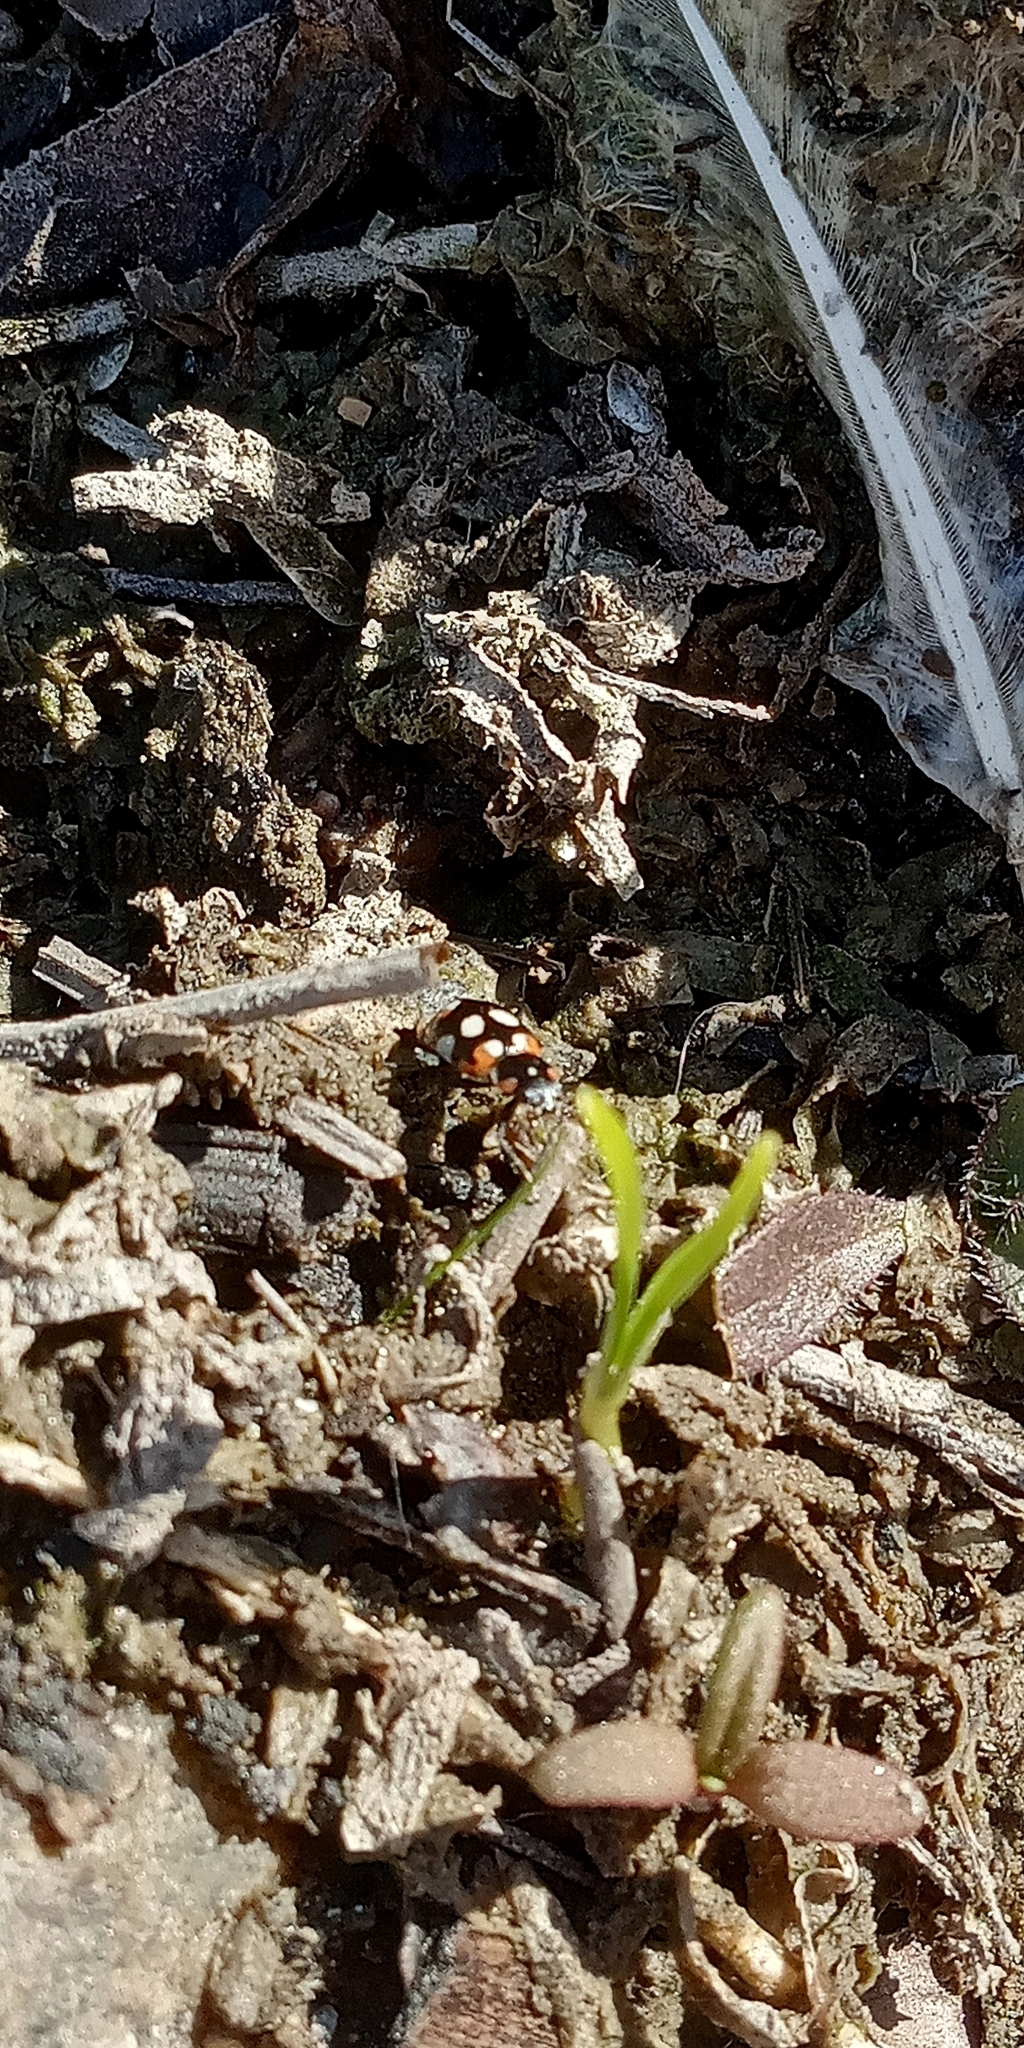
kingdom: Animalia
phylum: Arthropoda
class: Insecta
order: Coleoptera
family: Coccinellidae
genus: Eriopis
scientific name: Eriopis connexa
